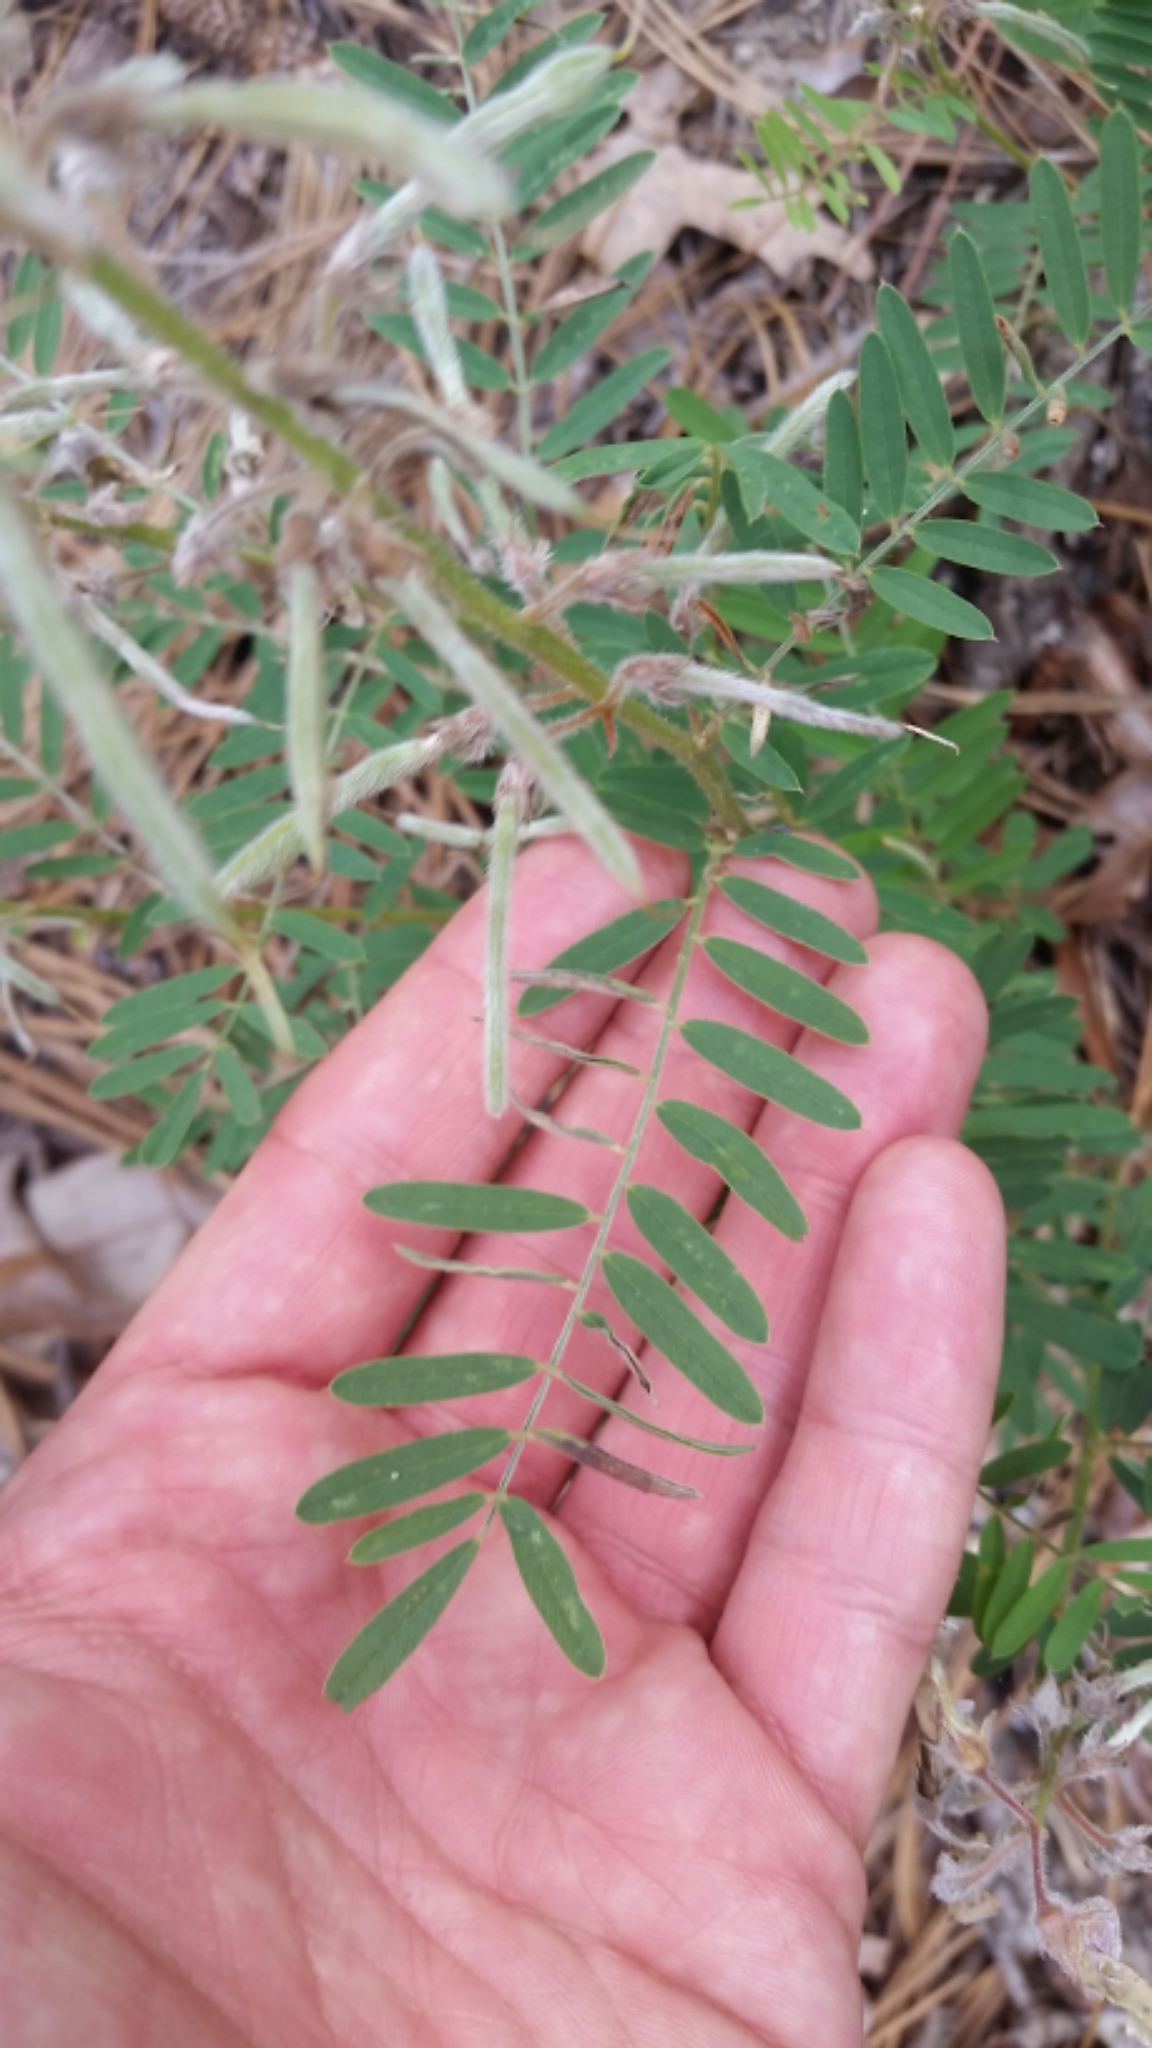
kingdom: Plantae
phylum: Tracheophyta
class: Magnoliopsida
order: Fabales
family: Fabaceae
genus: Tephrosia
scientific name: Tephrosia virginiana
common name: Rabbit-pea
